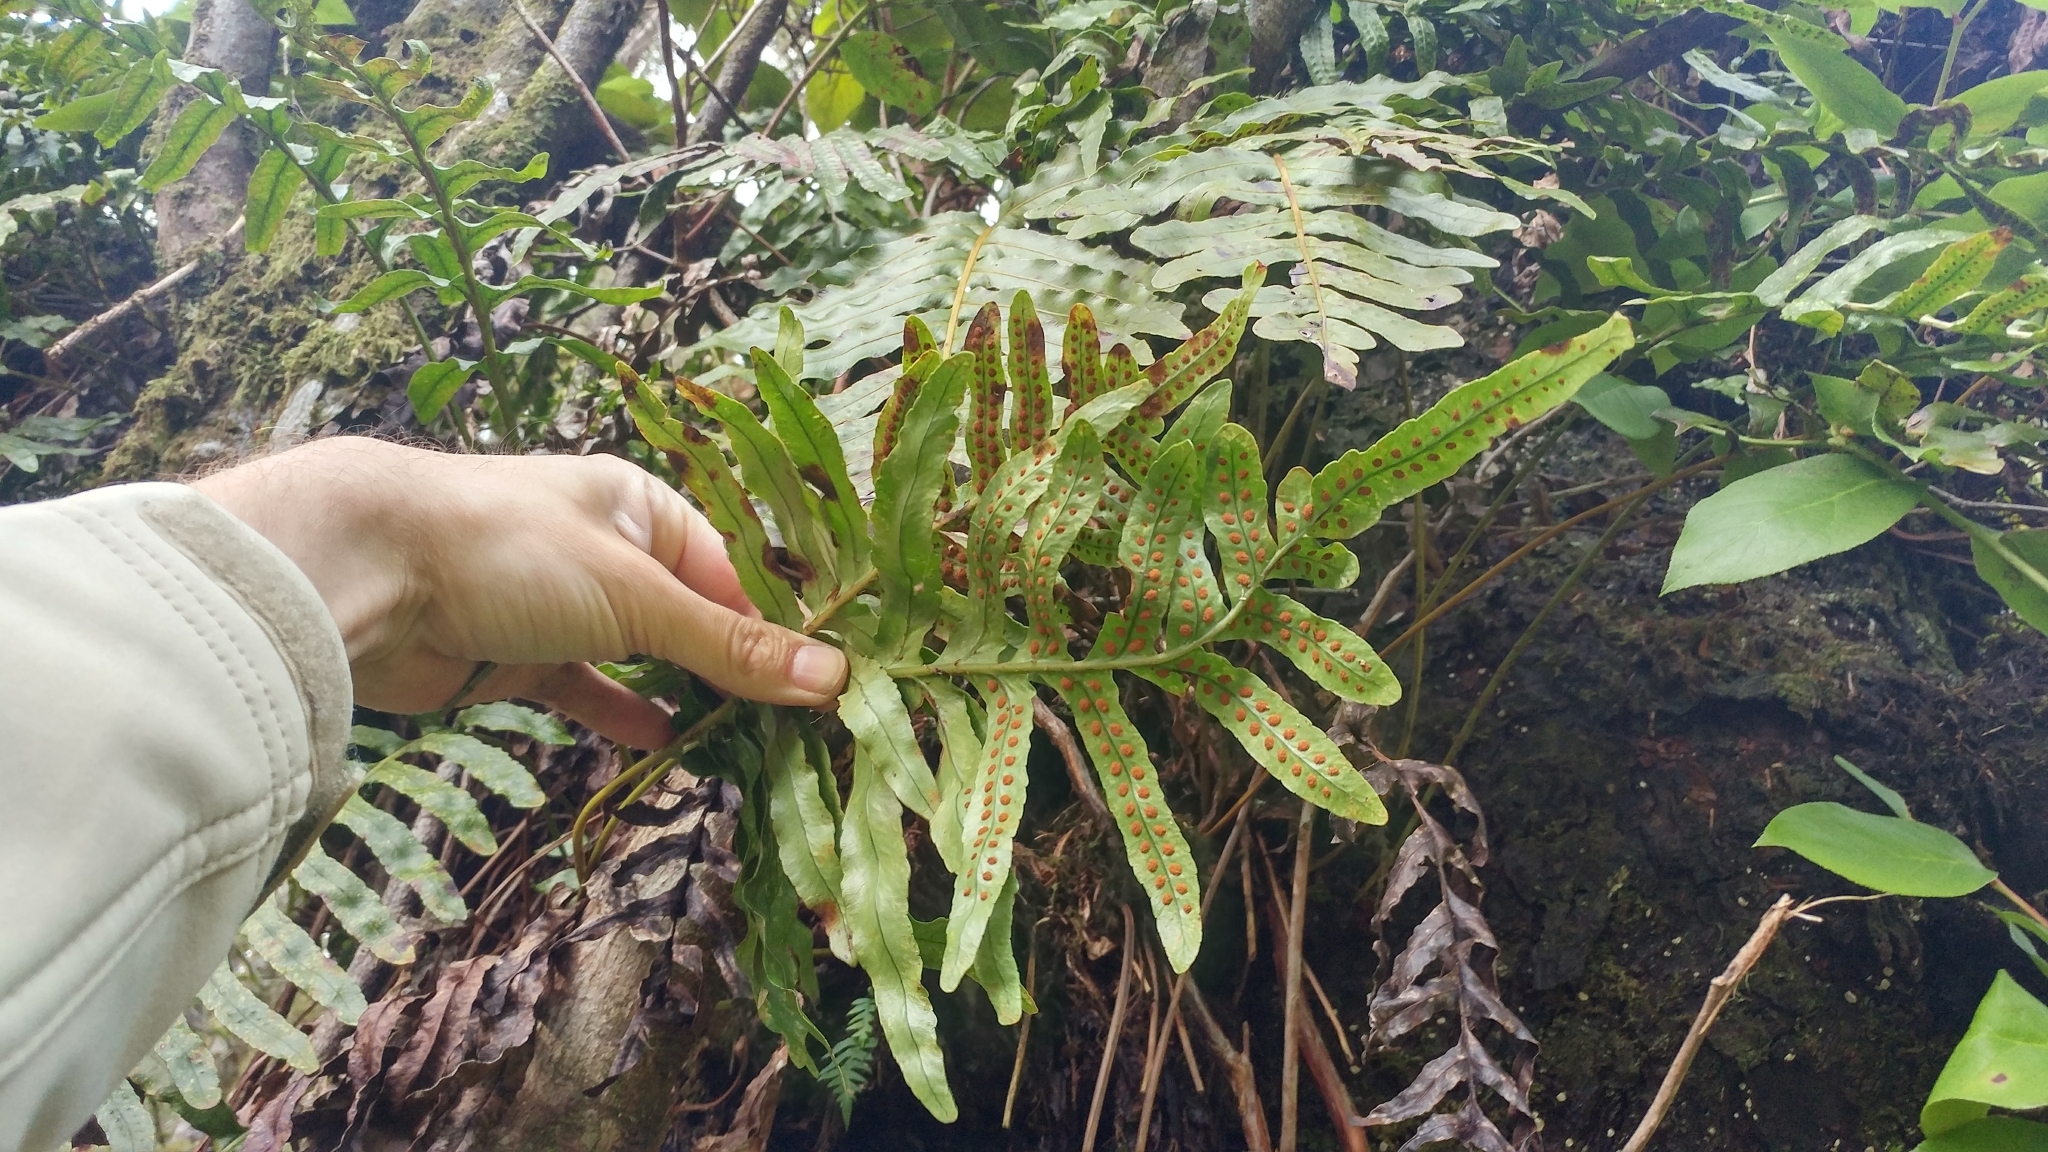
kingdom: Plantae
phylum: Tracheophyta
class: Polypodiopsida
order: Polypodiales
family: Polypodiaceae
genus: Polypodium
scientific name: Polypodium scouleri
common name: Scouler's polypody
